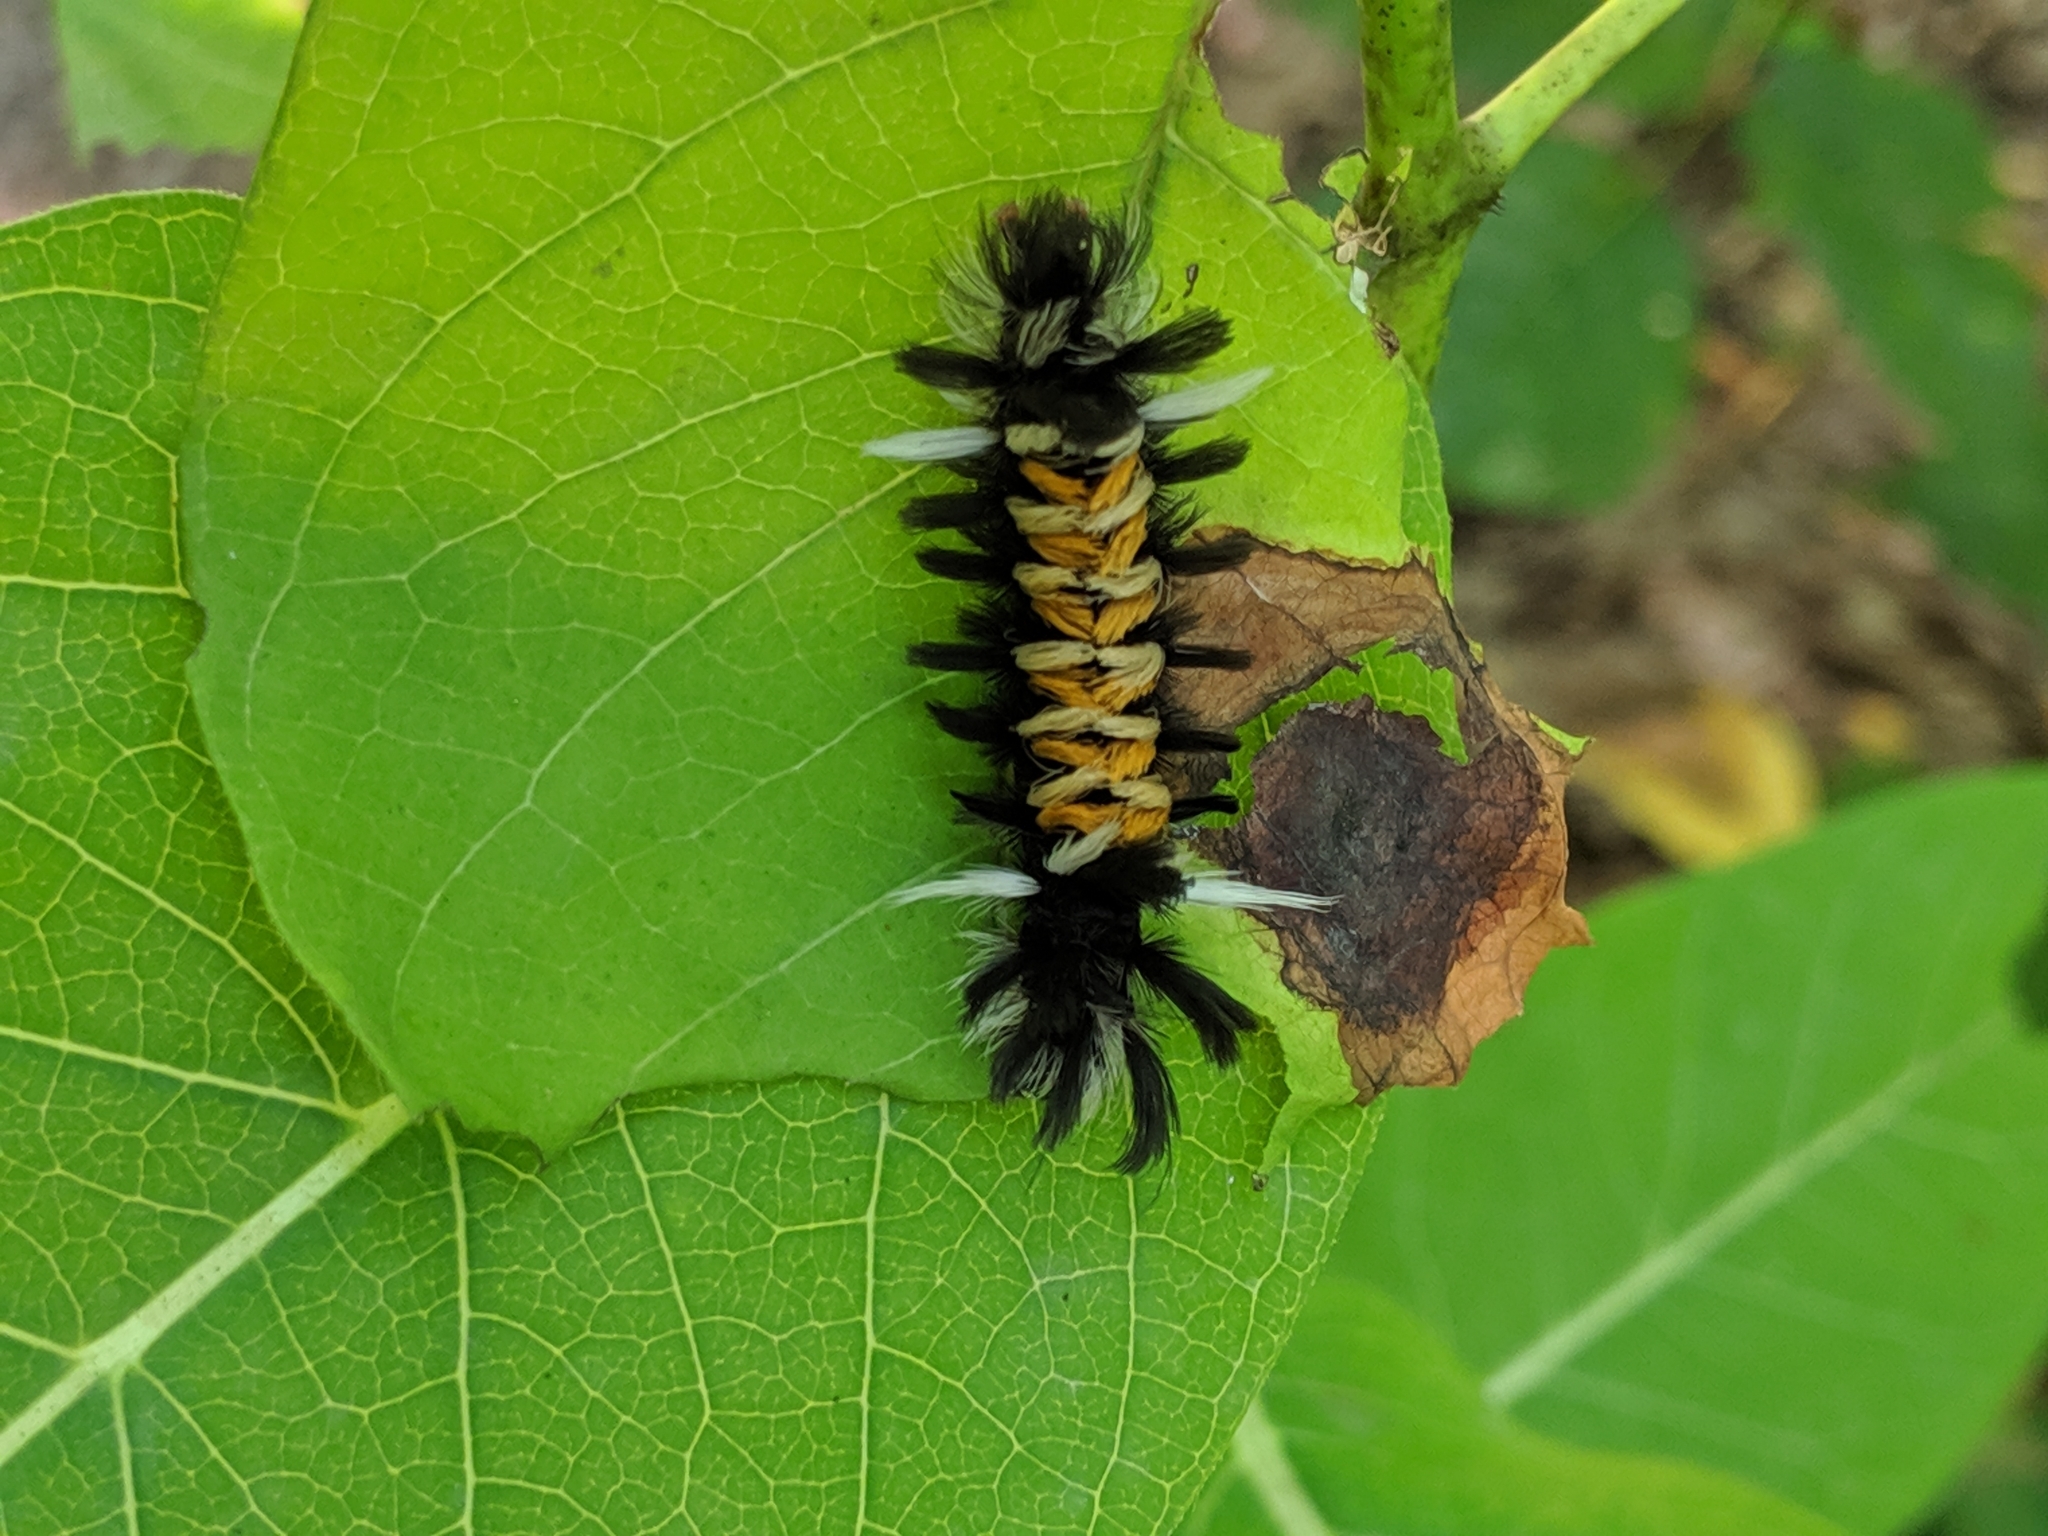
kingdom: Animalia
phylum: Arthropoda
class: Insecta
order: Lepidoptera
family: Erebidae
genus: Euchaetes
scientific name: Euchaetes egle
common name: Milkweed tussock moth
